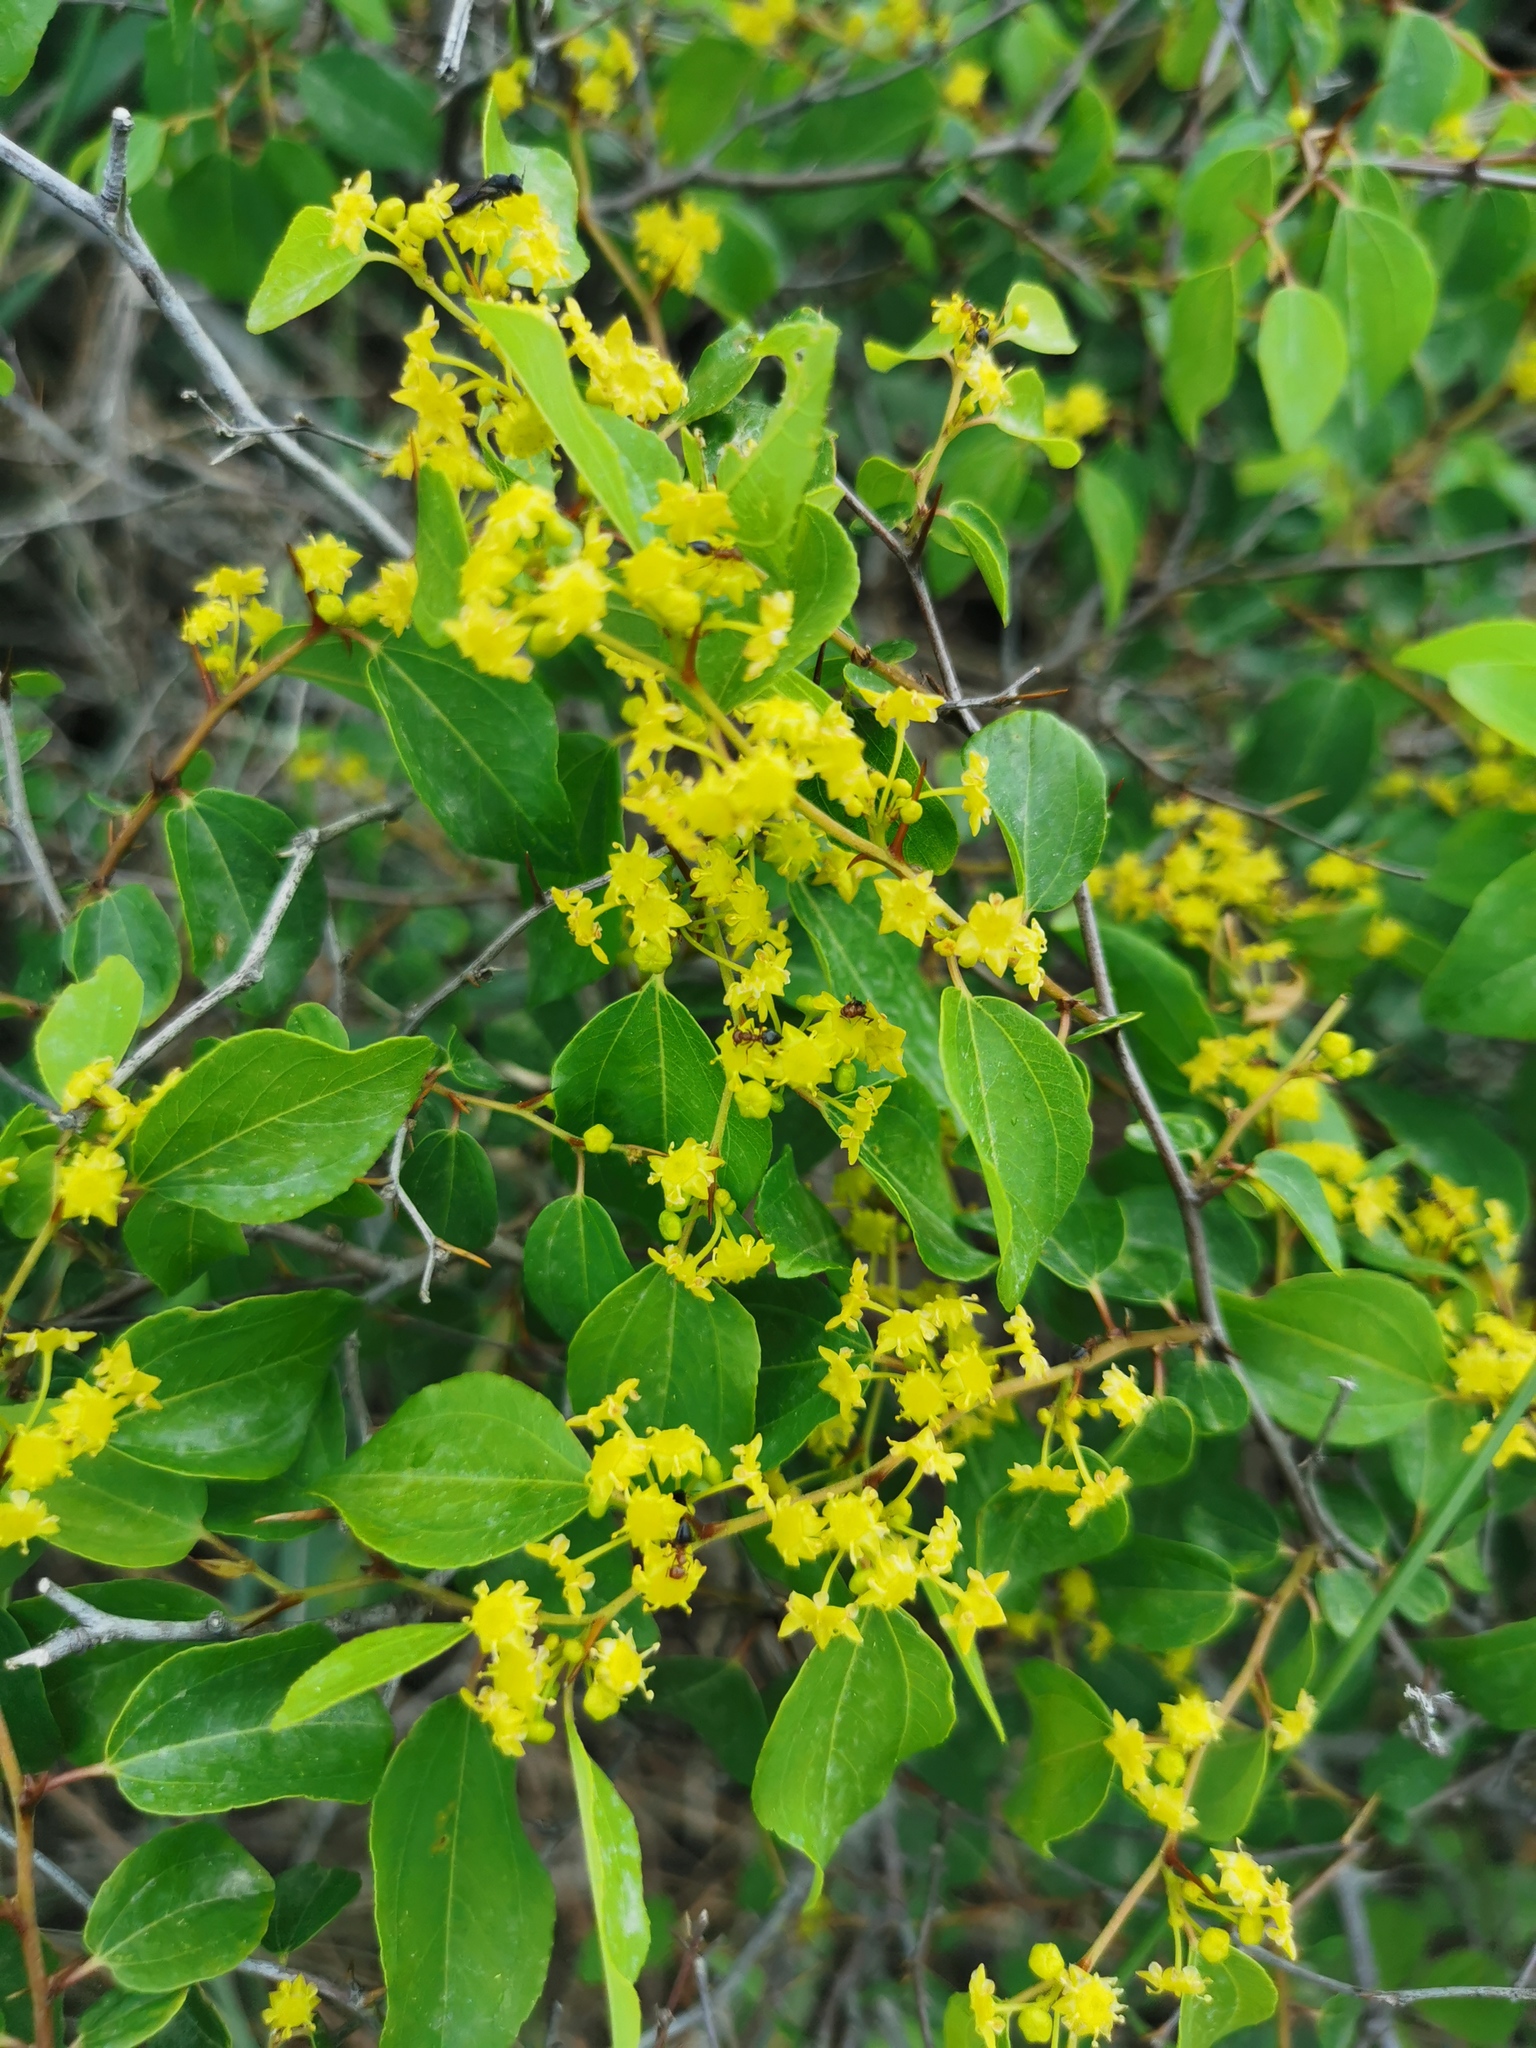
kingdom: Plantae
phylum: Tracheophyta
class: Magnoliopsida
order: Rosales
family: Rhamnaceae
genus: Paliurus
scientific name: Paliurus spina-christi
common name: Jeruselem thorn
